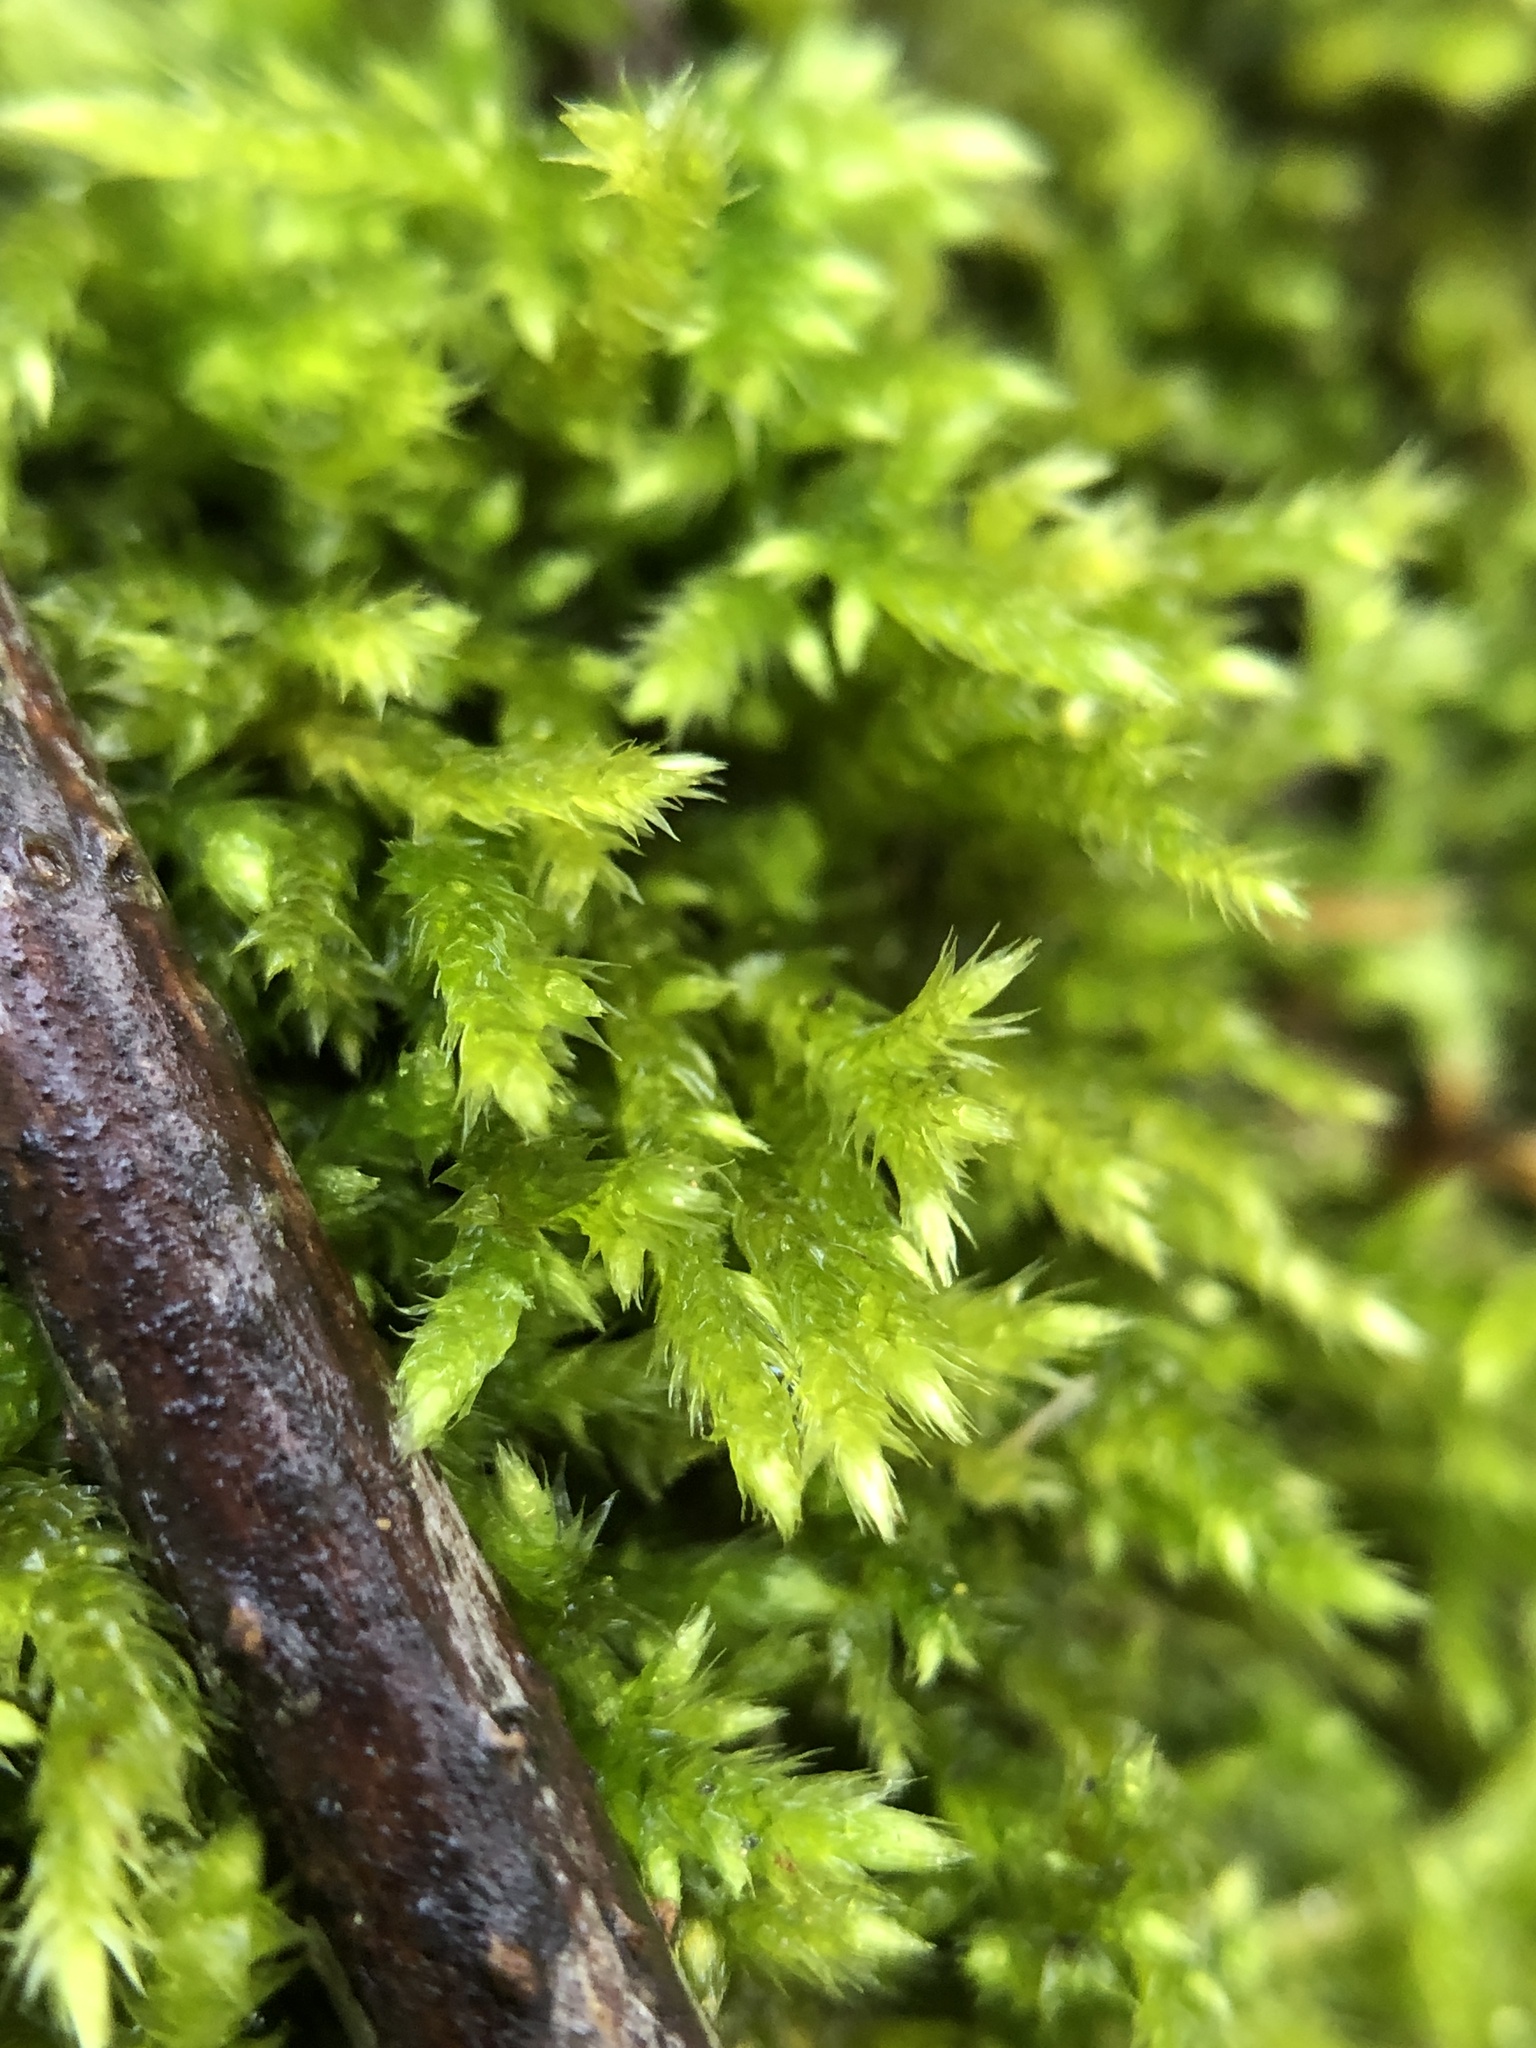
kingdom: Plantae
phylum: Bryophyta
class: Bryopsida
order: Hypnales
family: Callicladiaceae
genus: Callicladium
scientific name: Callicladium haldanianum
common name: Beautiful branch moss
